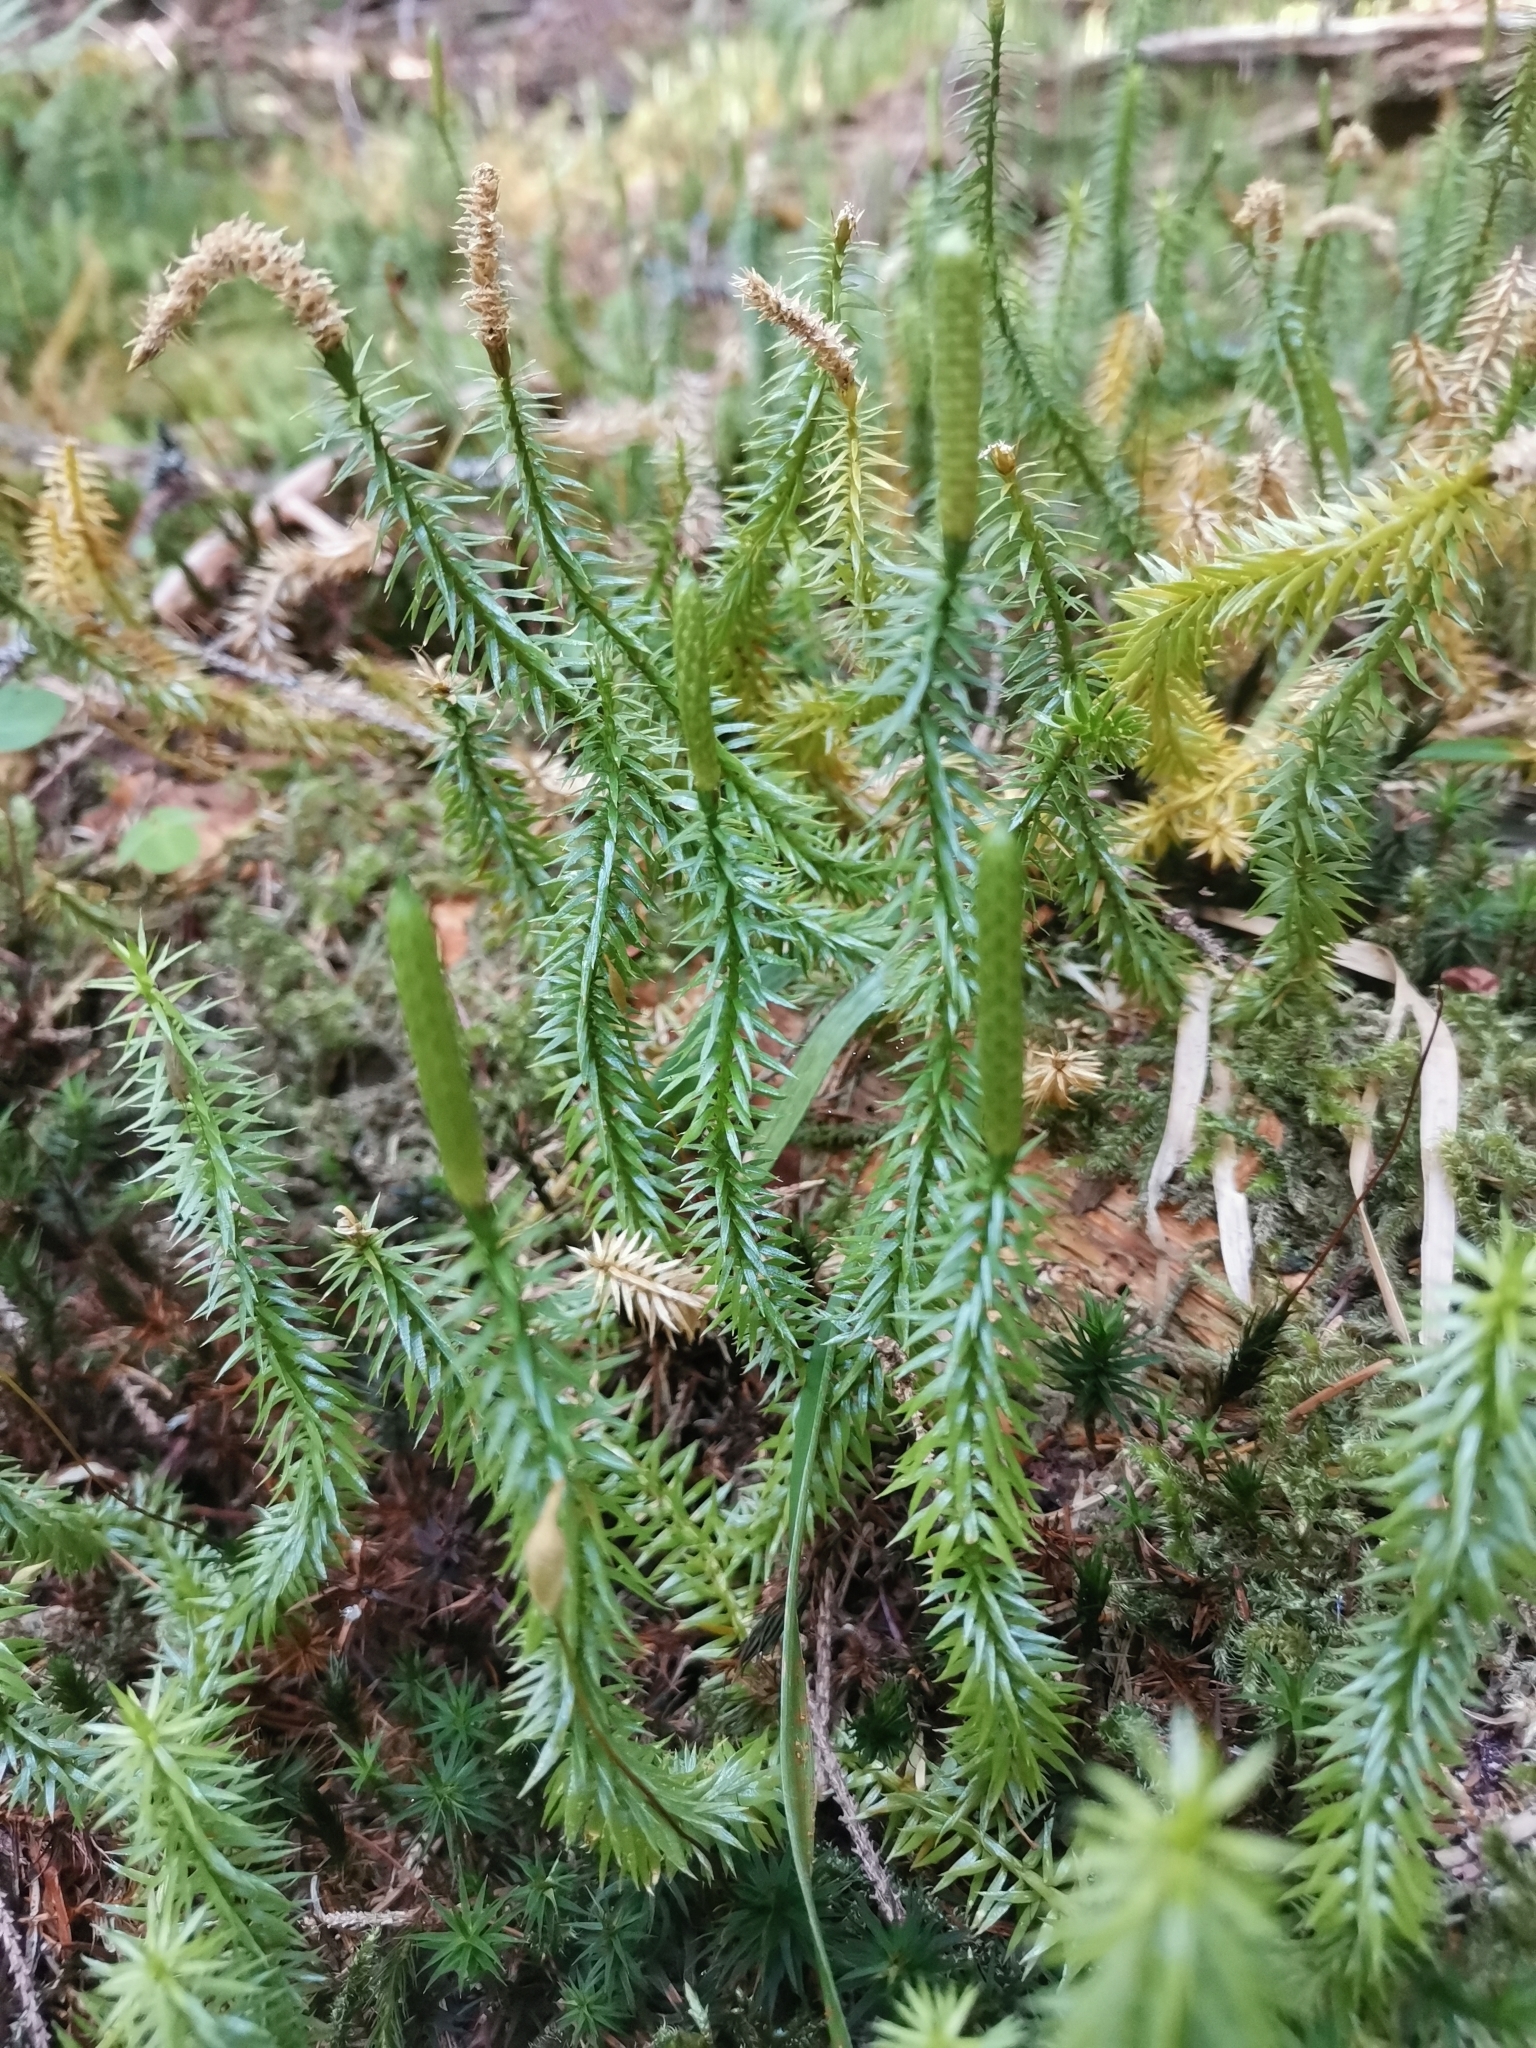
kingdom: Plantae
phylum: Tracheophyta
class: Lycopodiopsida
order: Lycopodiales
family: Lycopodiaceae
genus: Spinulum
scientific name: Spinulum annotinum
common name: Interrupted club-moss
